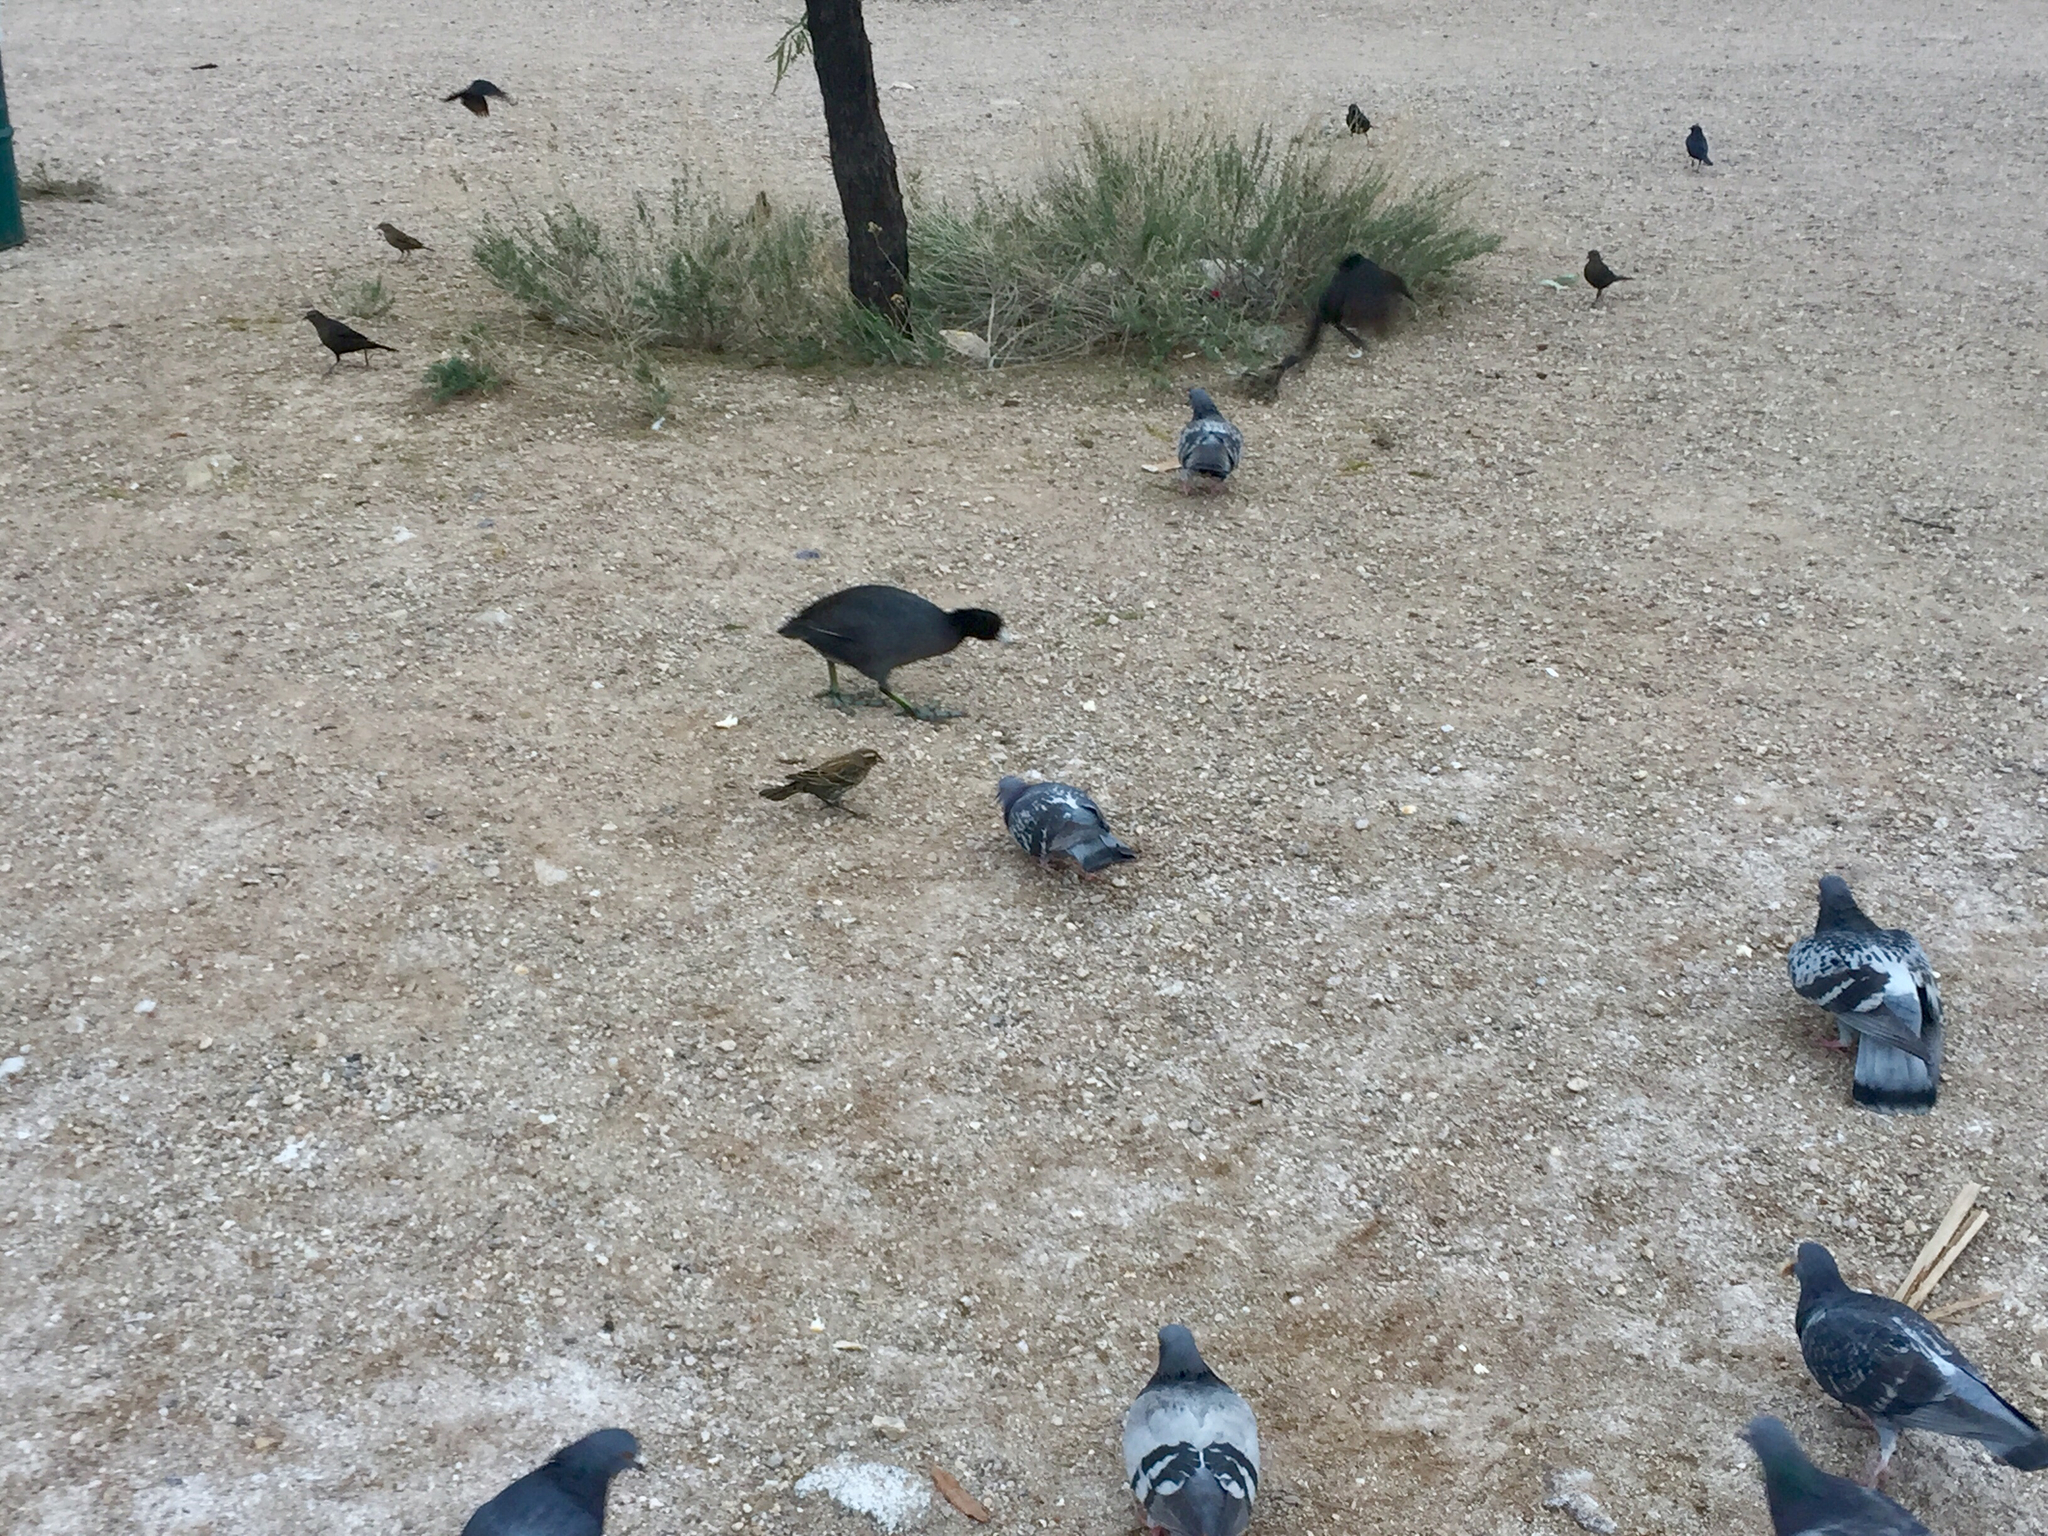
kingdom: Animalia
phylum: Chordata
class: Aves
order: Gruiformes
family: Rallidae
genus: Fulica
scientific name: Fulica americana
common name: American coot
